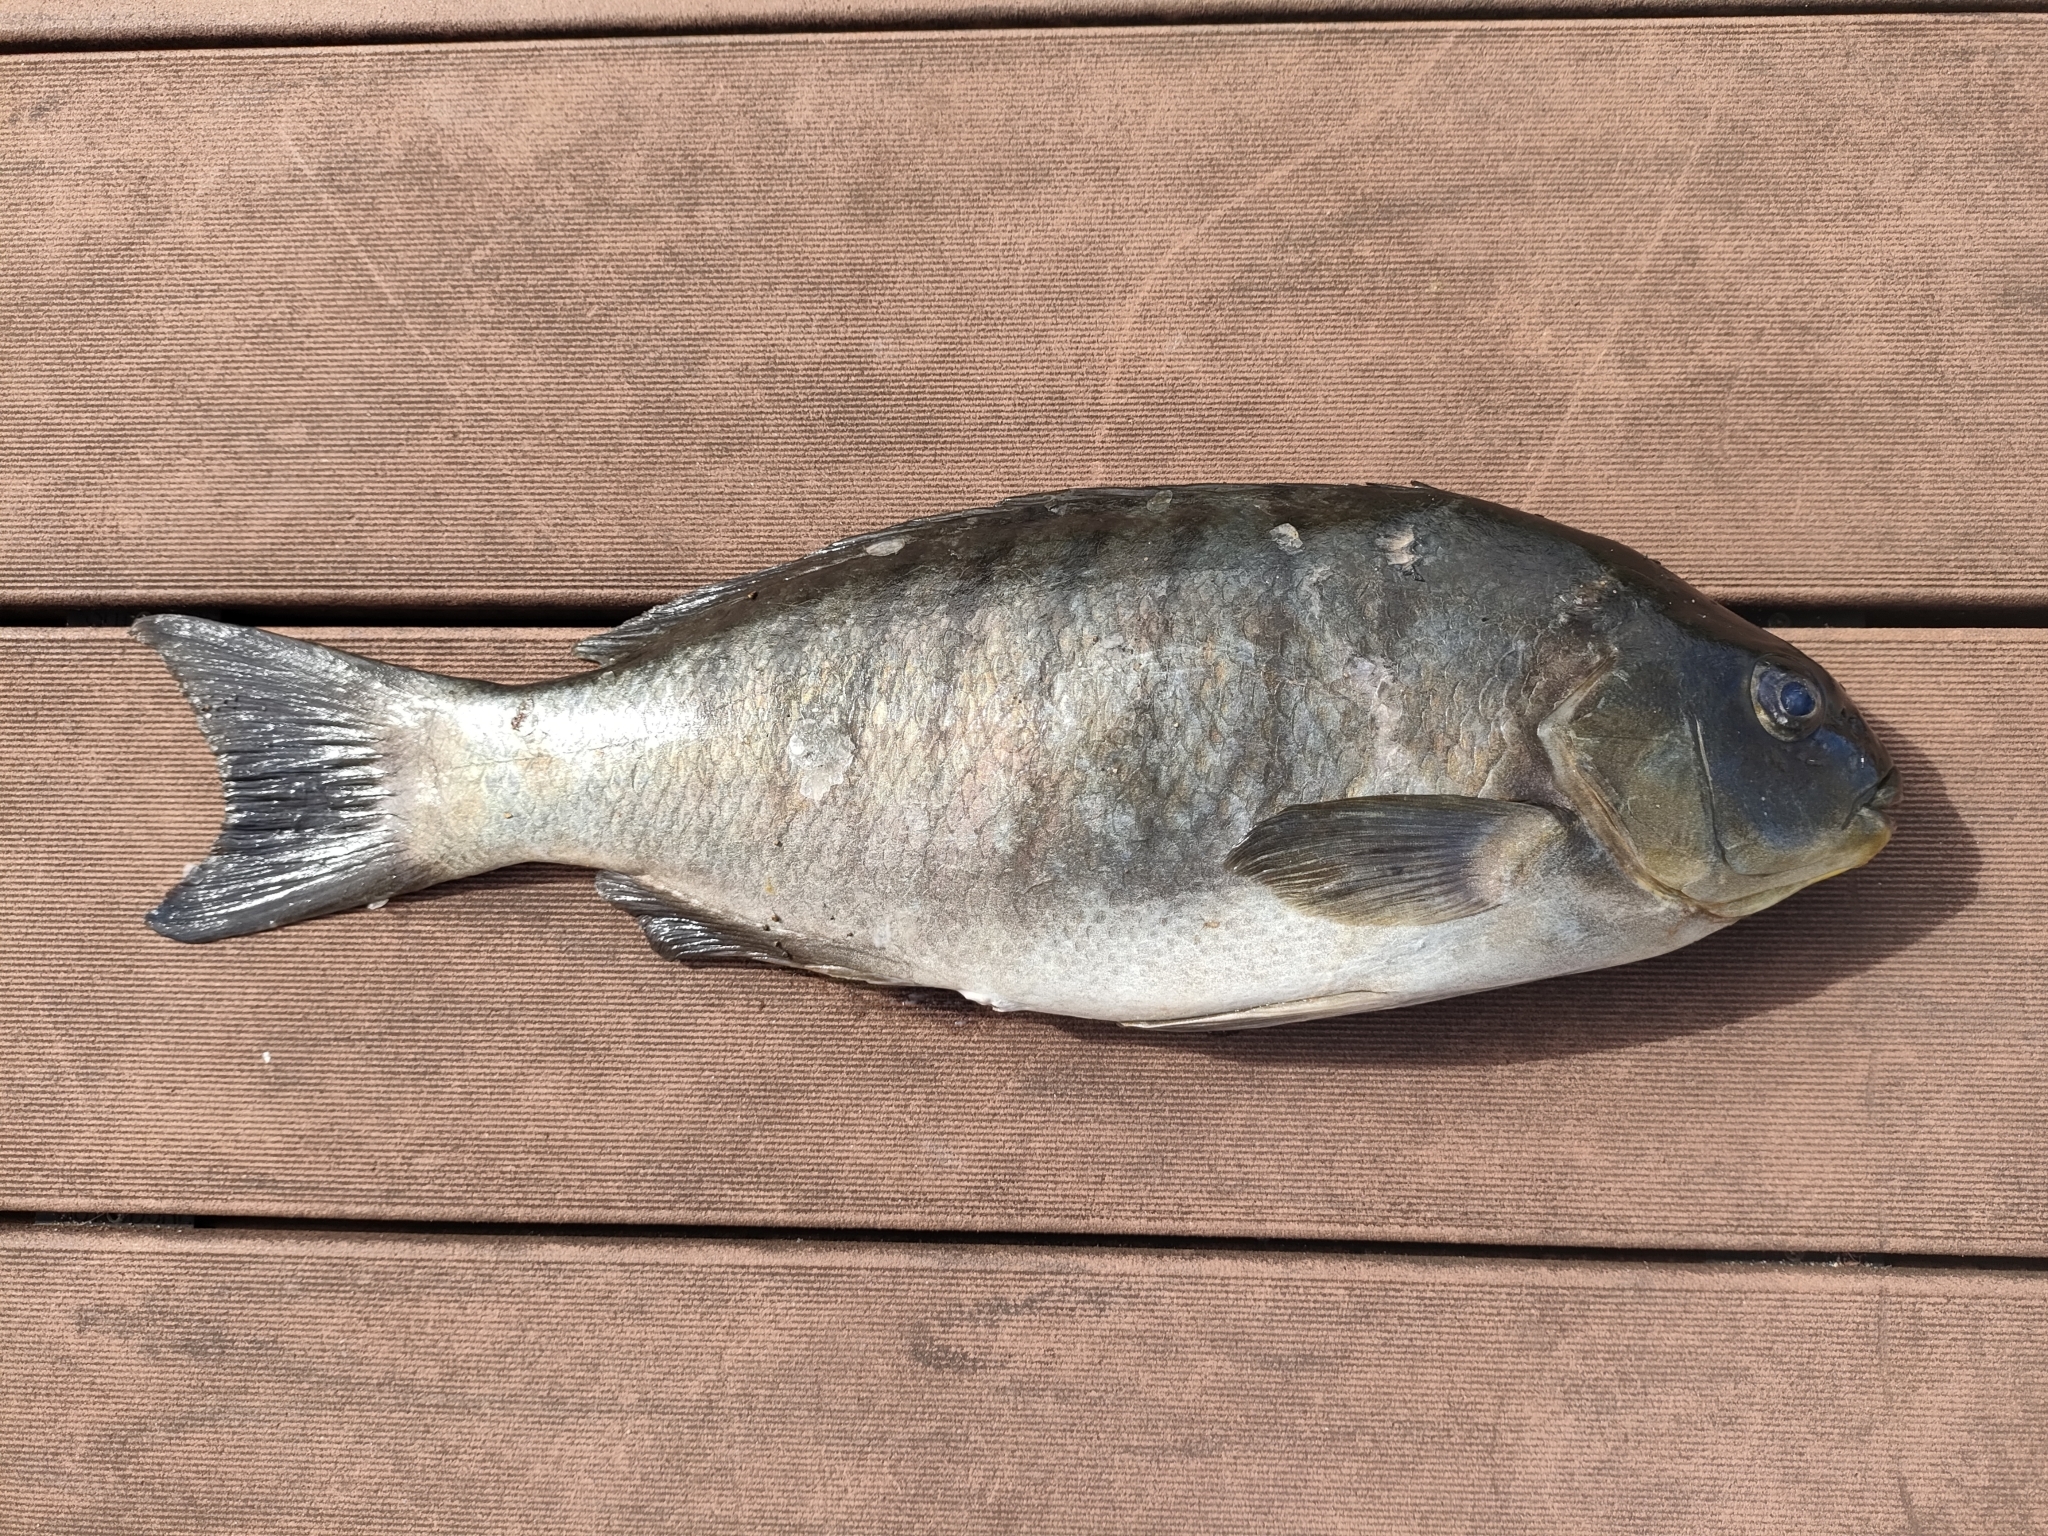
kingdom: Animalia
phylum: Chordata
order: Perciformes
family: Kyphosidae
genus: Girella
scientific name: Girella tricuspidata
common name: Parore
